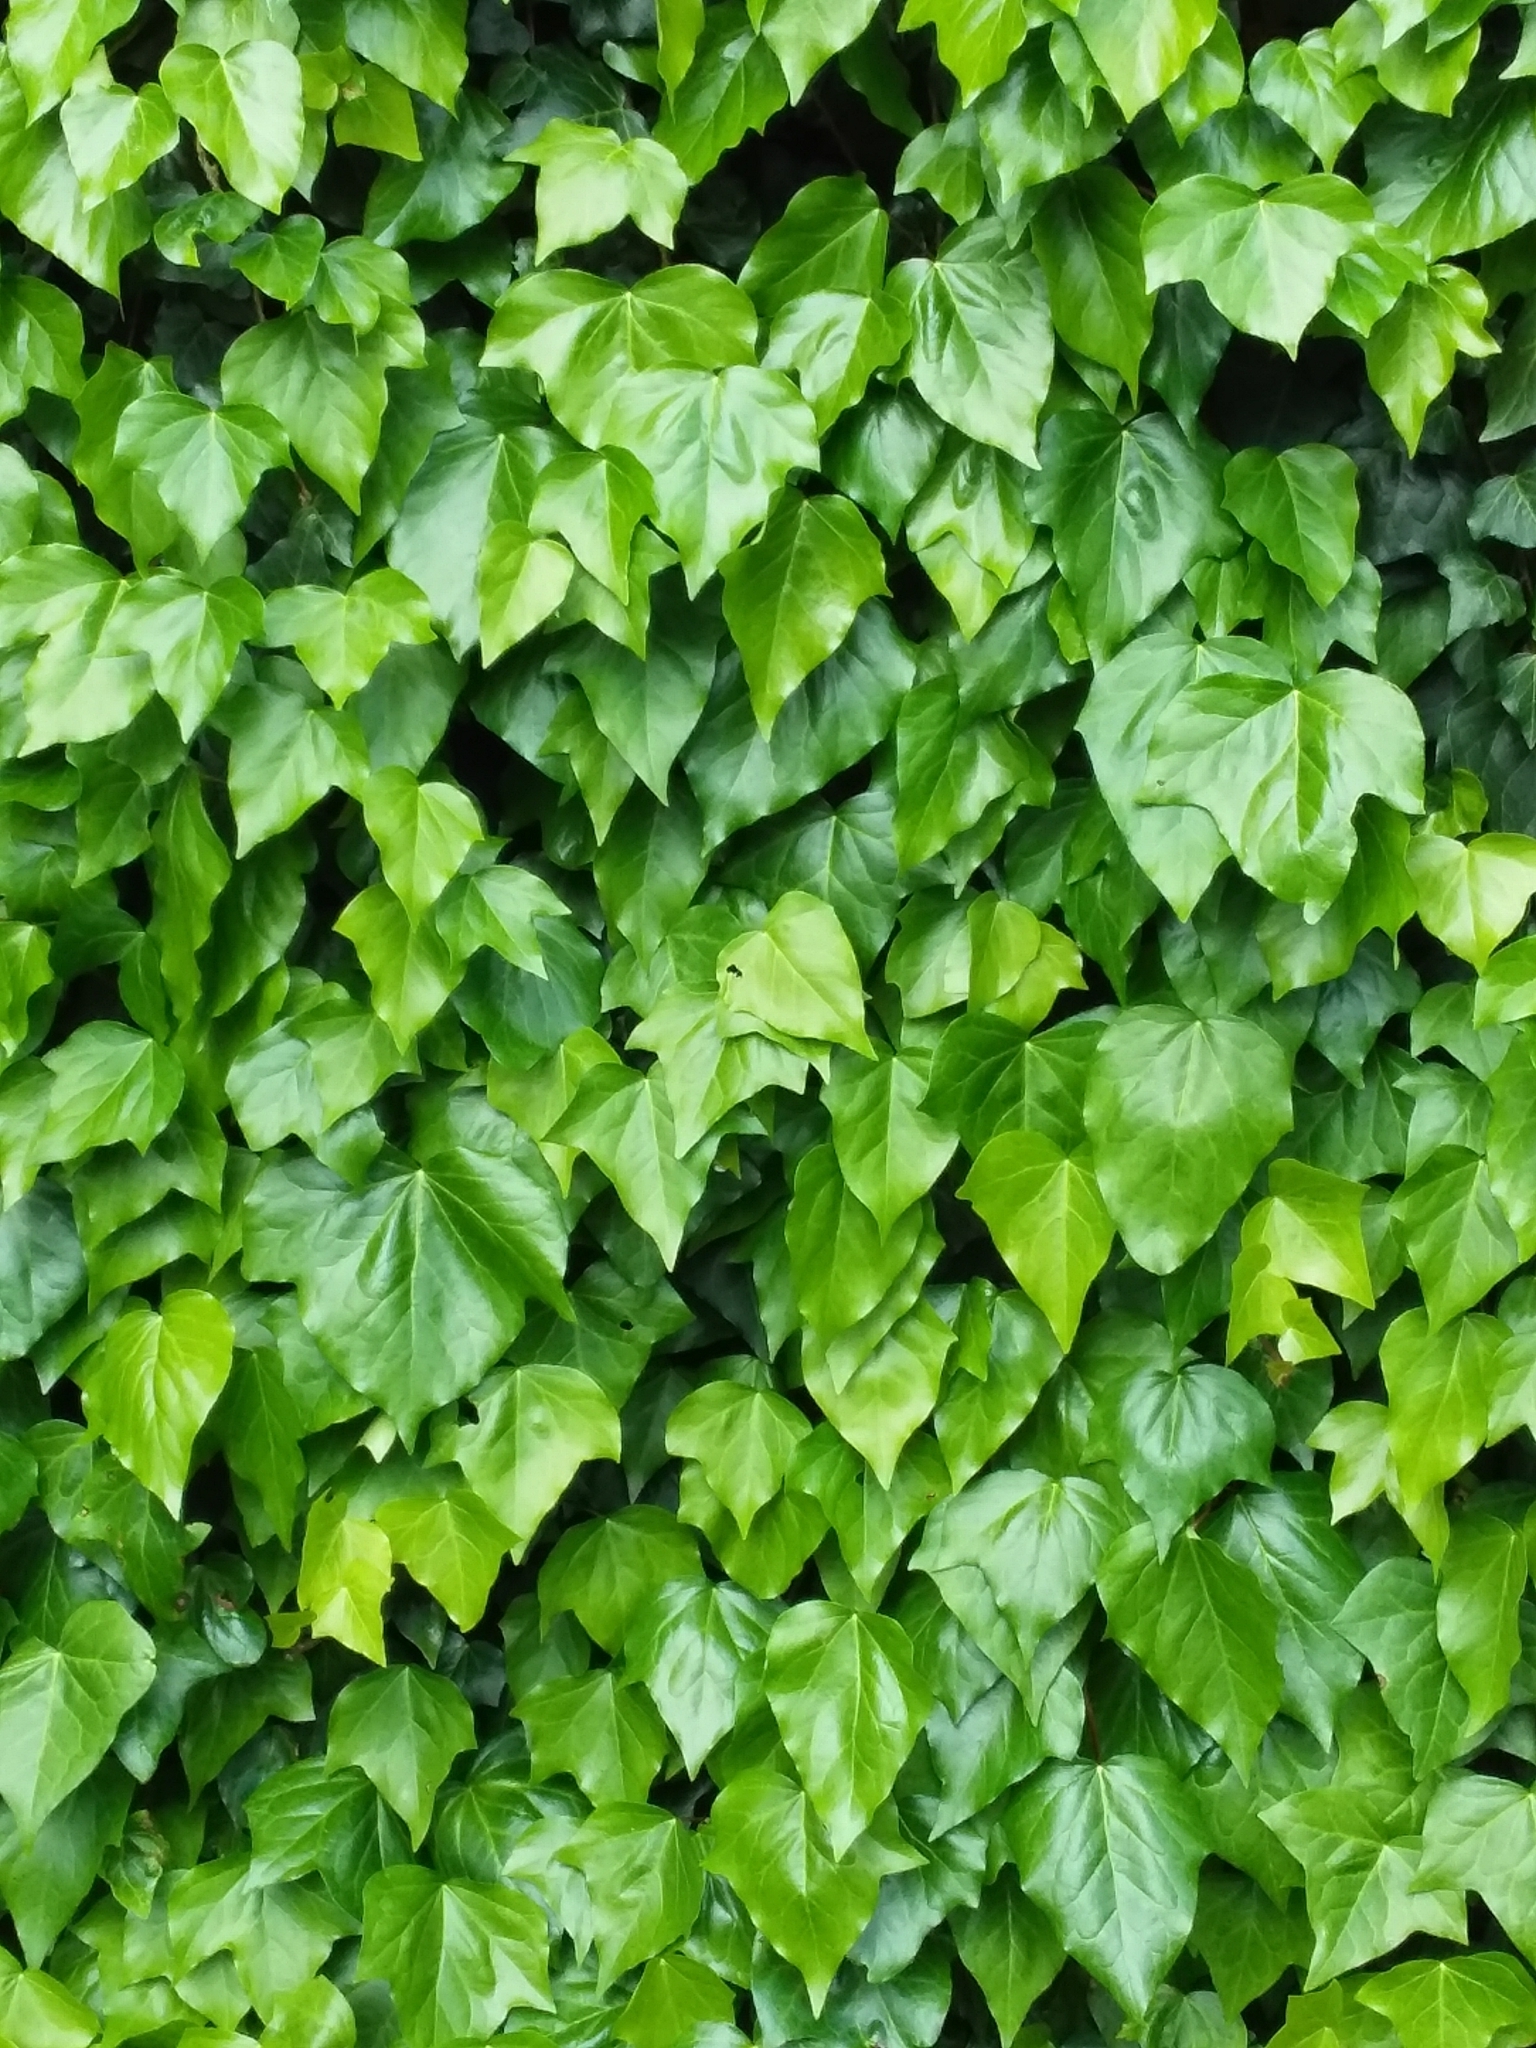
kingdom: Plantae
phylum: Tracheophyta
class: Magnoliopsida
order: Apiales
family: Araliaceae
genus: Hedera
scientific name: Hedera helix
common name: Ivy
